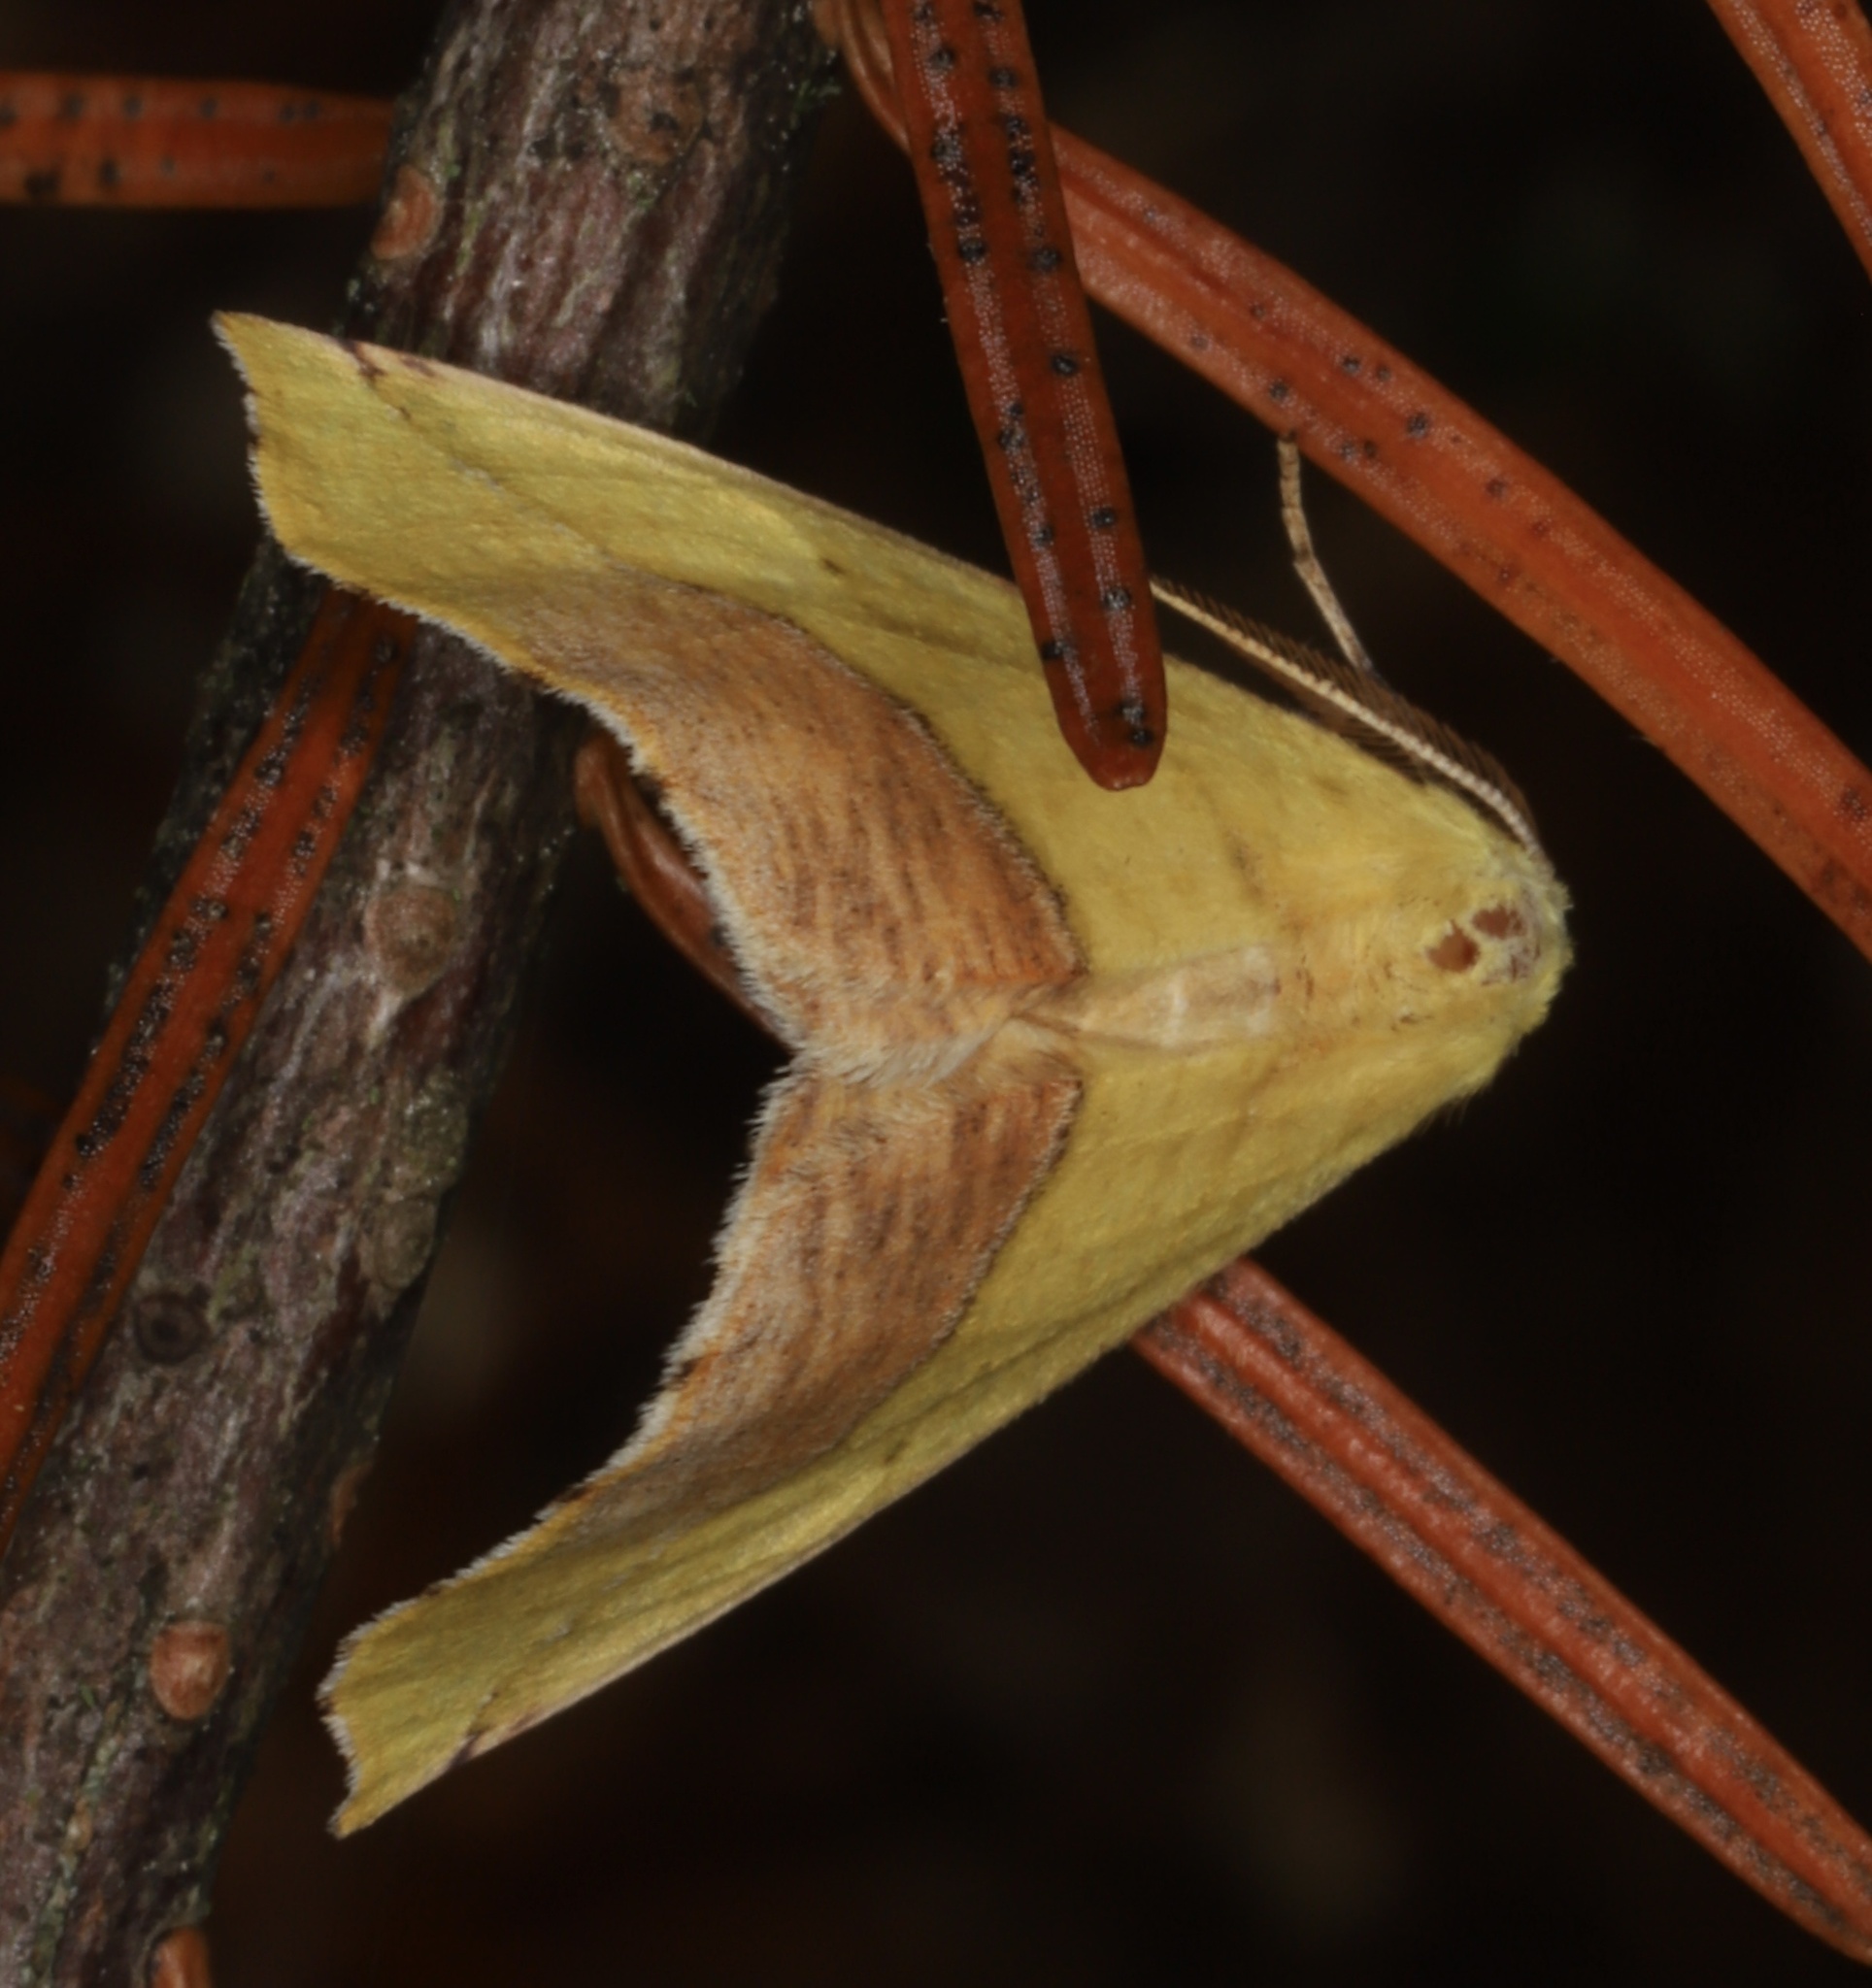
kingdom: Animalia
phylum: Arthropoda
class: Insecta
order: Lepidoptera
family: Geometridae
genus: Sicya
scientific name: Sicya macularia
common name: Sharp-lined yellow
